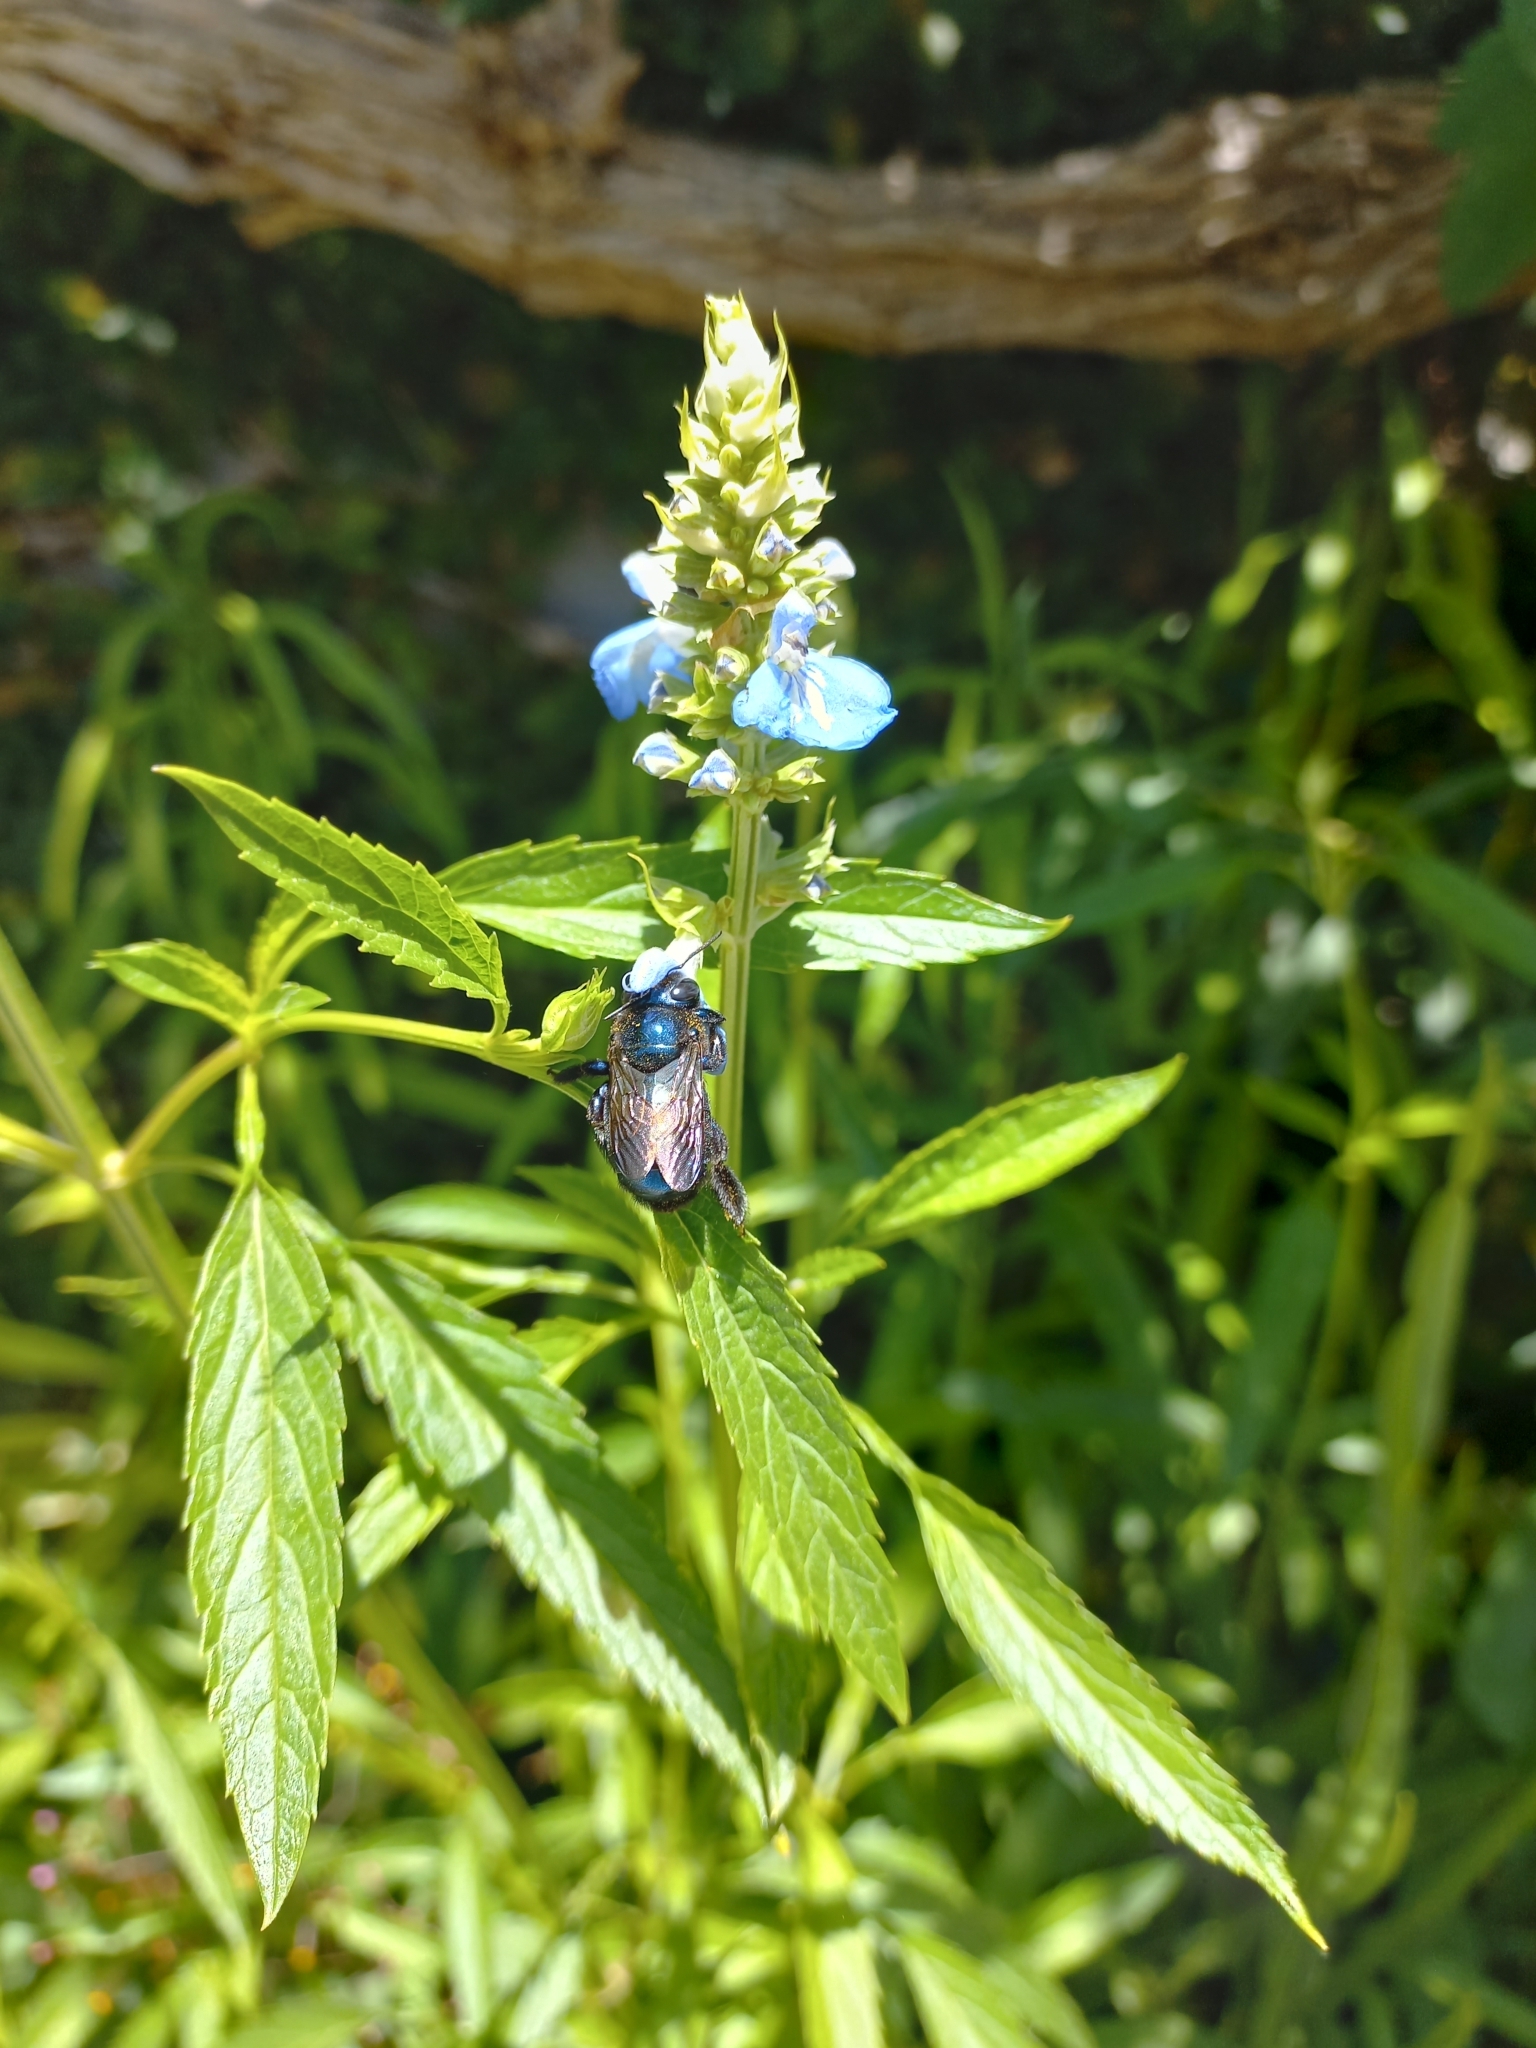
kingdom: Animalia
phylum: Arthropoda
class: Insecta
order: Hymenoptera
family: Apidae
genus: Xylocopa
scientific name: Xylocopa splendidula
